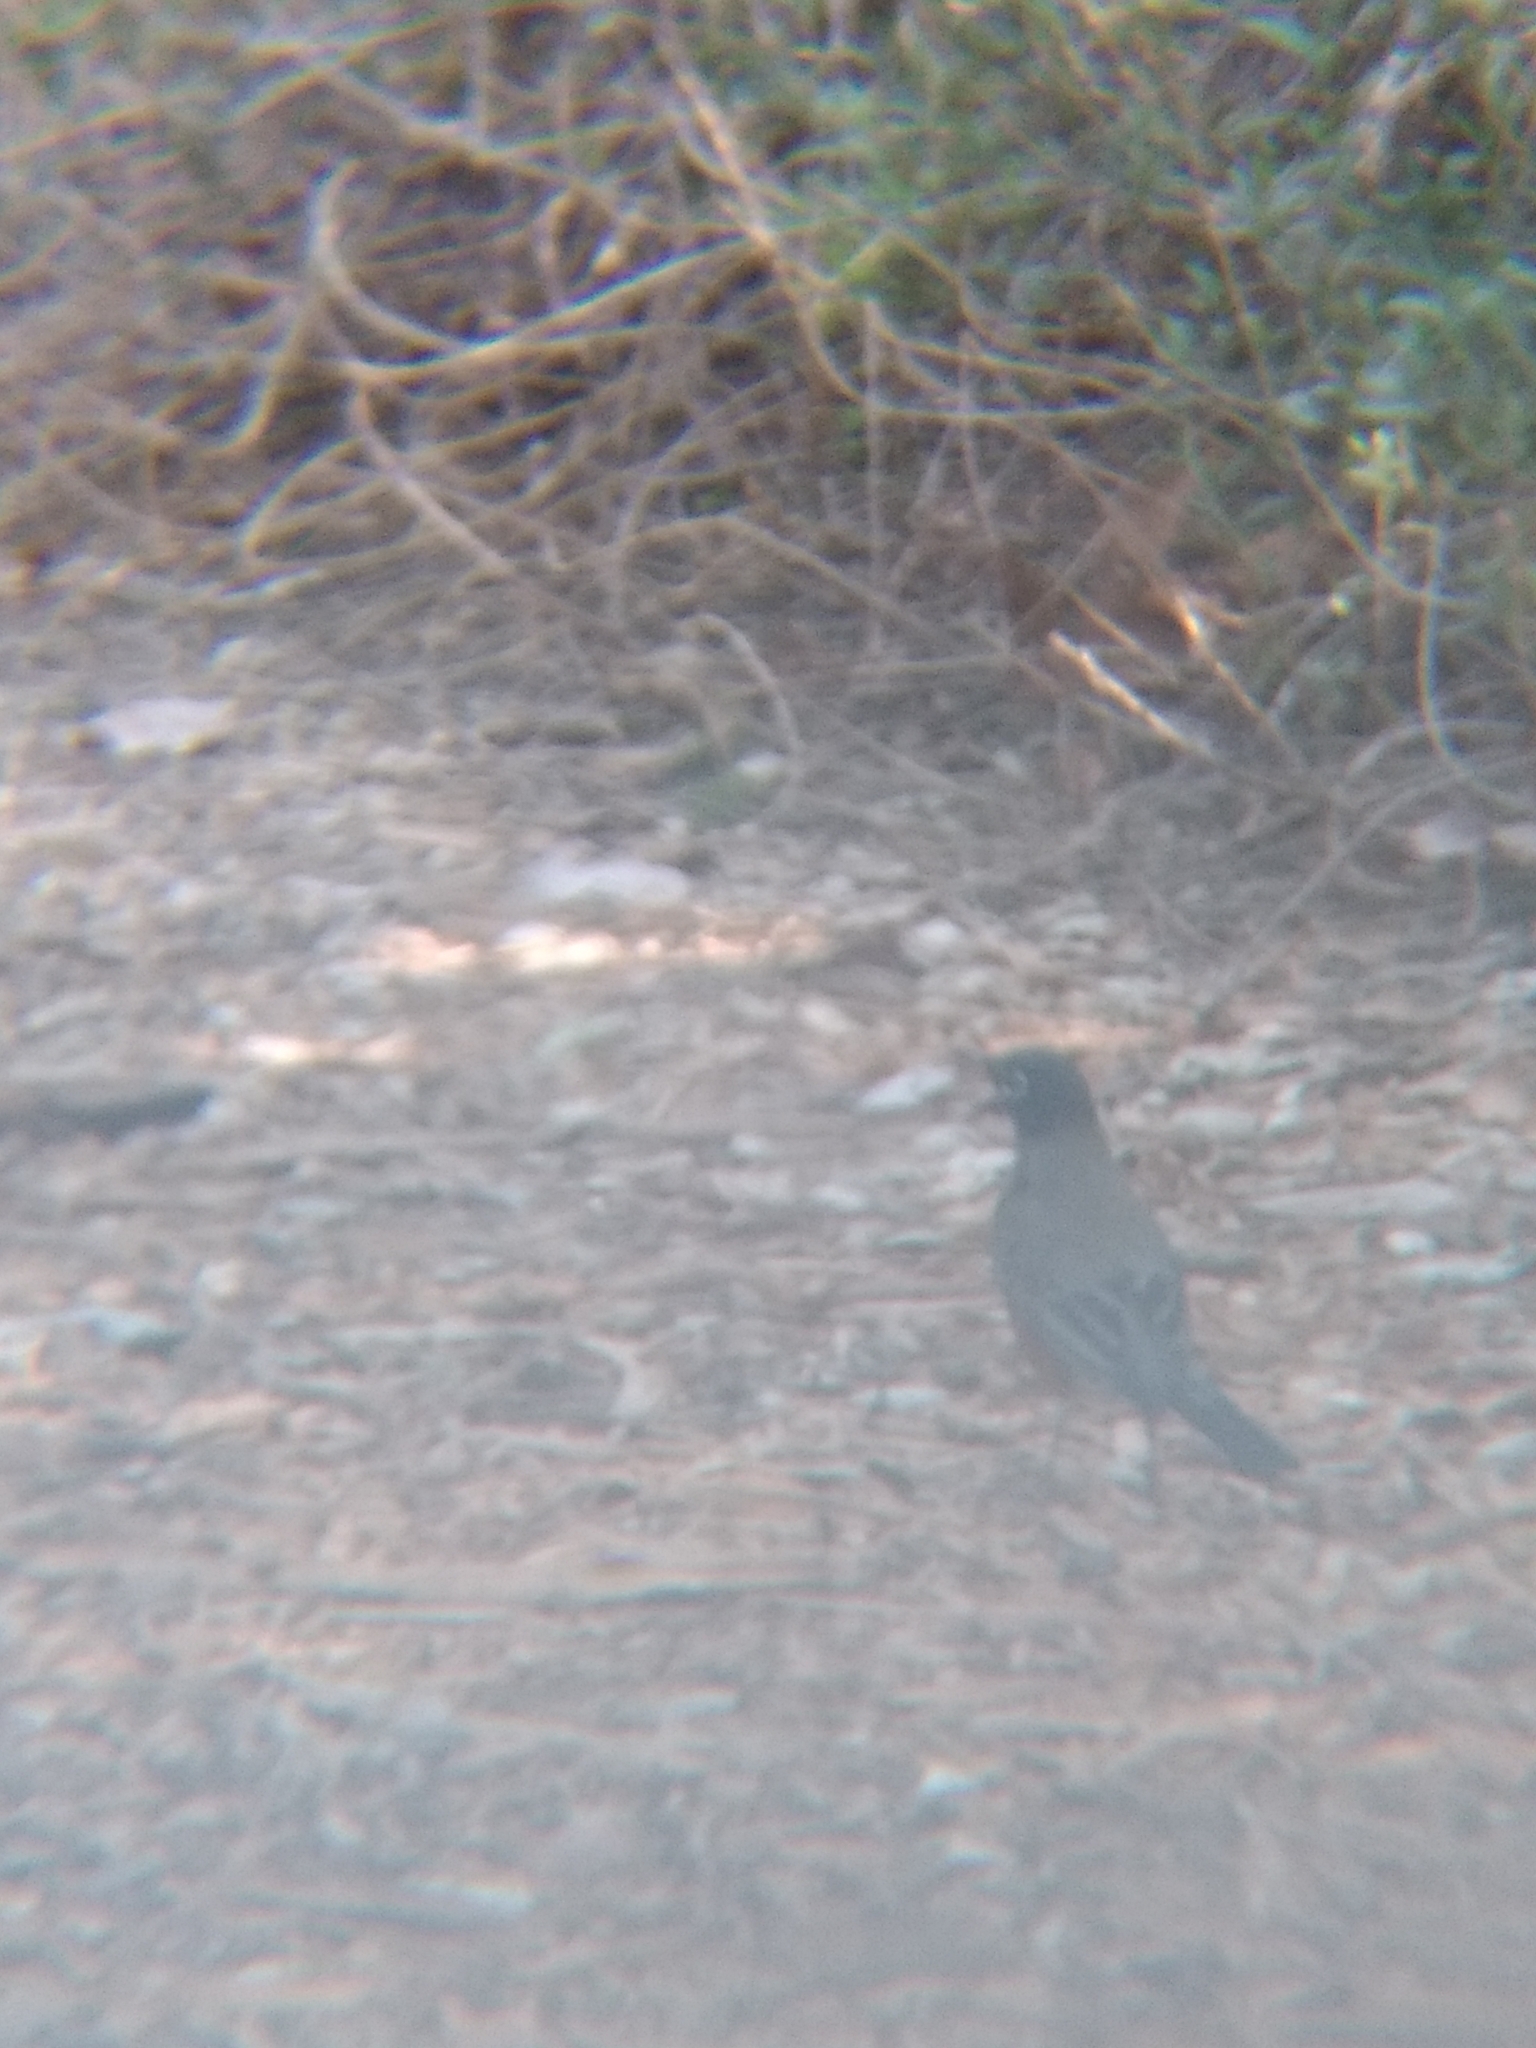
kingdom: Animalia
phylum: Chordata
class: Aves
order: Passeriformes
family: Turdidae
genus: Turdus
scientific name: Turdus migratorius
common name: American robin
